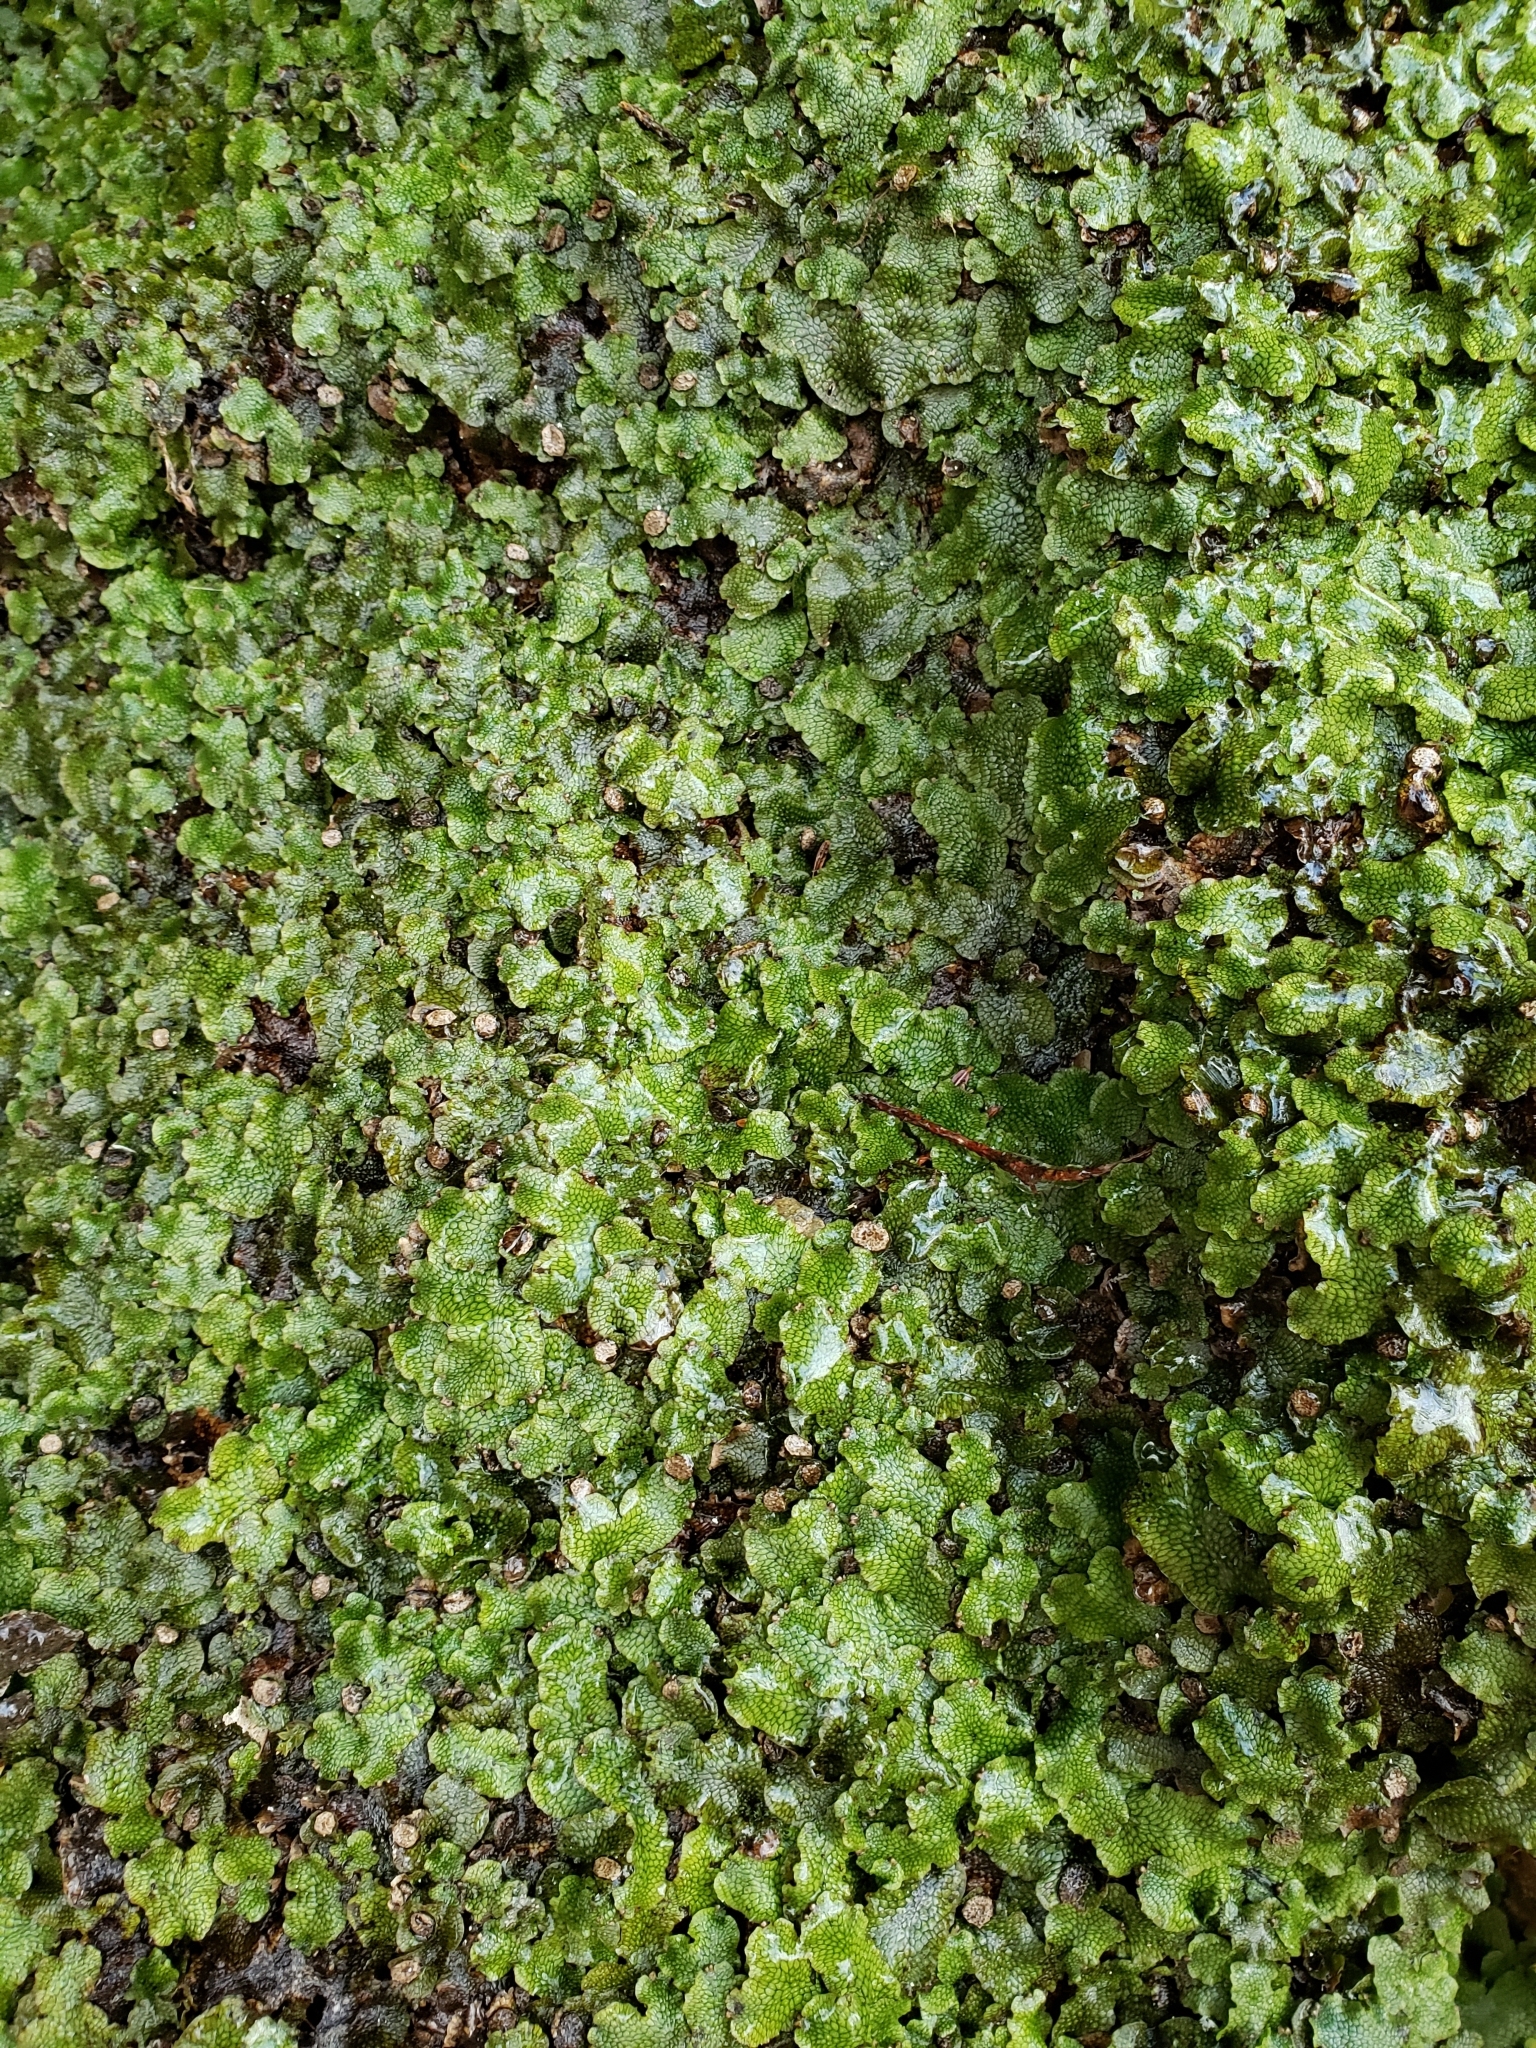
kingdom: Plantae
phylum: Marchantiophyta
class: Marchantiopsida
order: Marchantiales
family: Conocephalaceae
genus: Conocephalum
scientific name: Conocephalum salebrosum
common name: Cat-tongue liverwort
